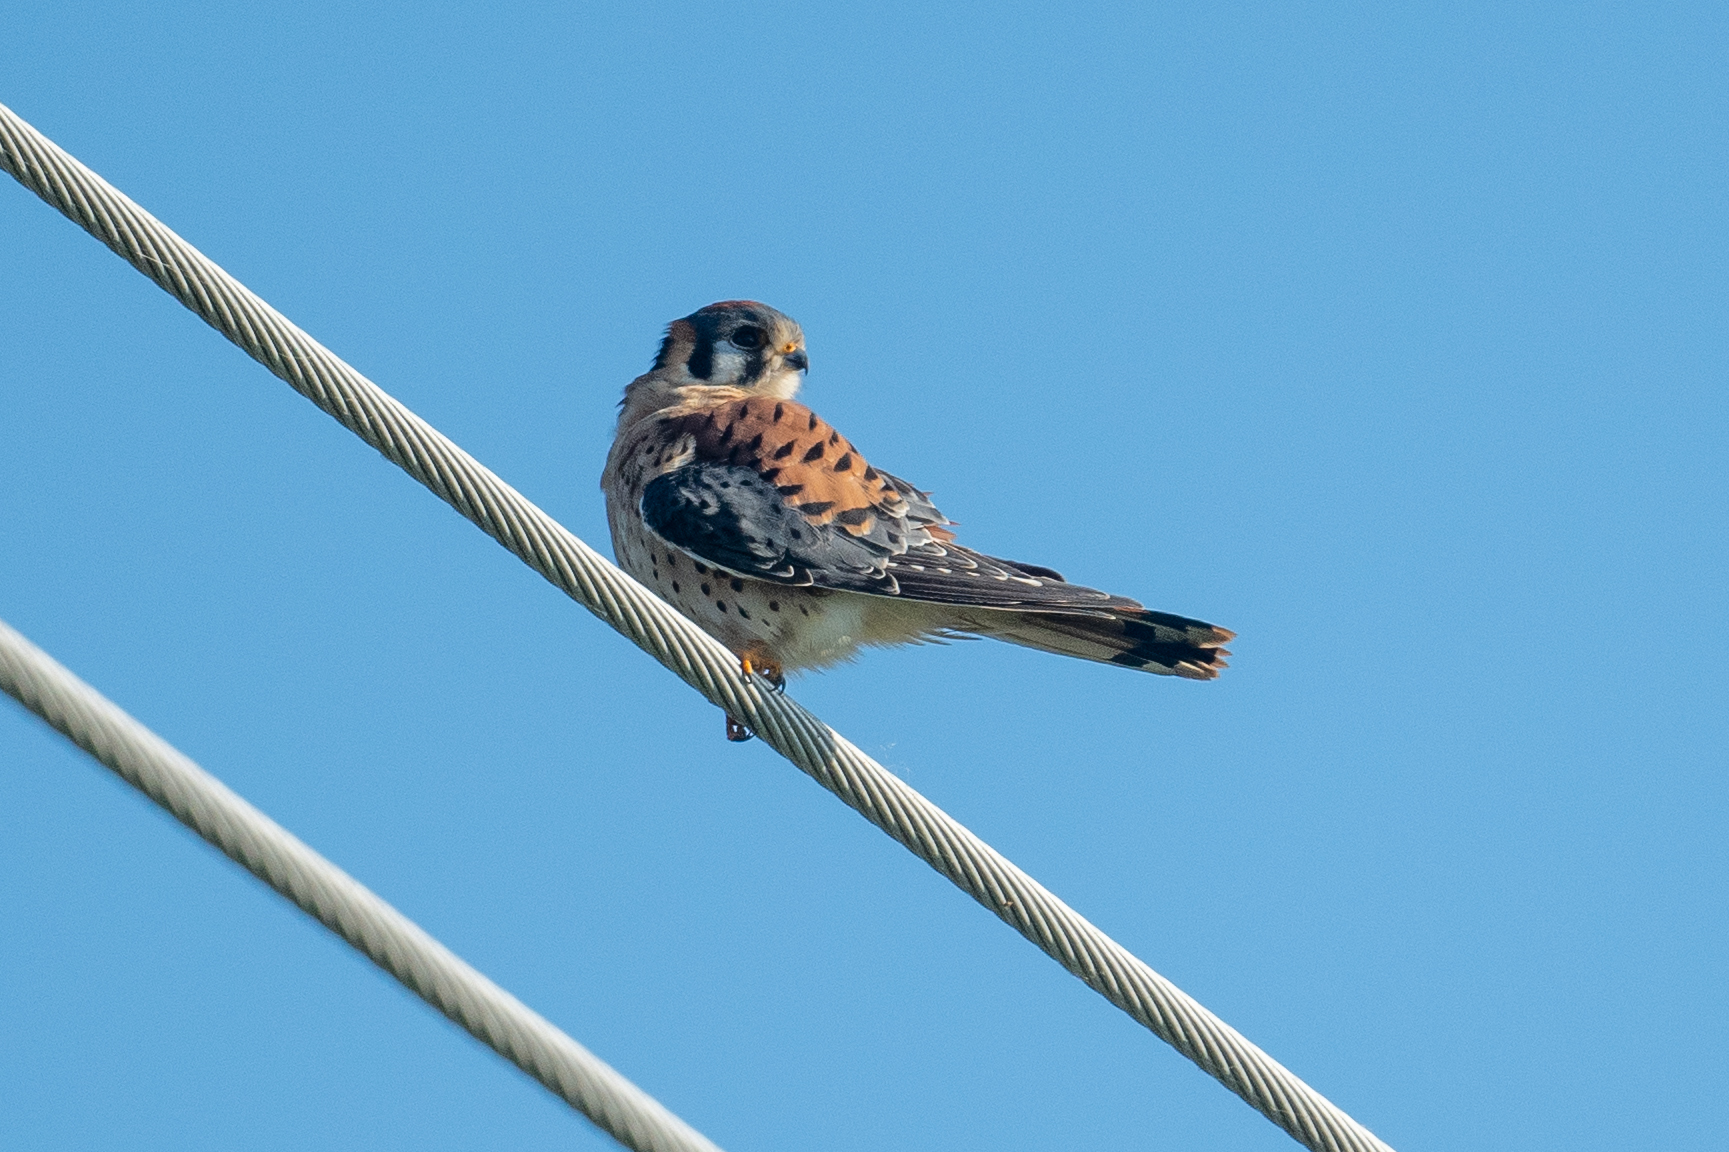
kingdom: Animalia
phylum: Chordata
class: Aves
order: Falconiformes
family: Falconidae
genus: Falco
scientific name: Falco sparverius
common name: American kestrel
